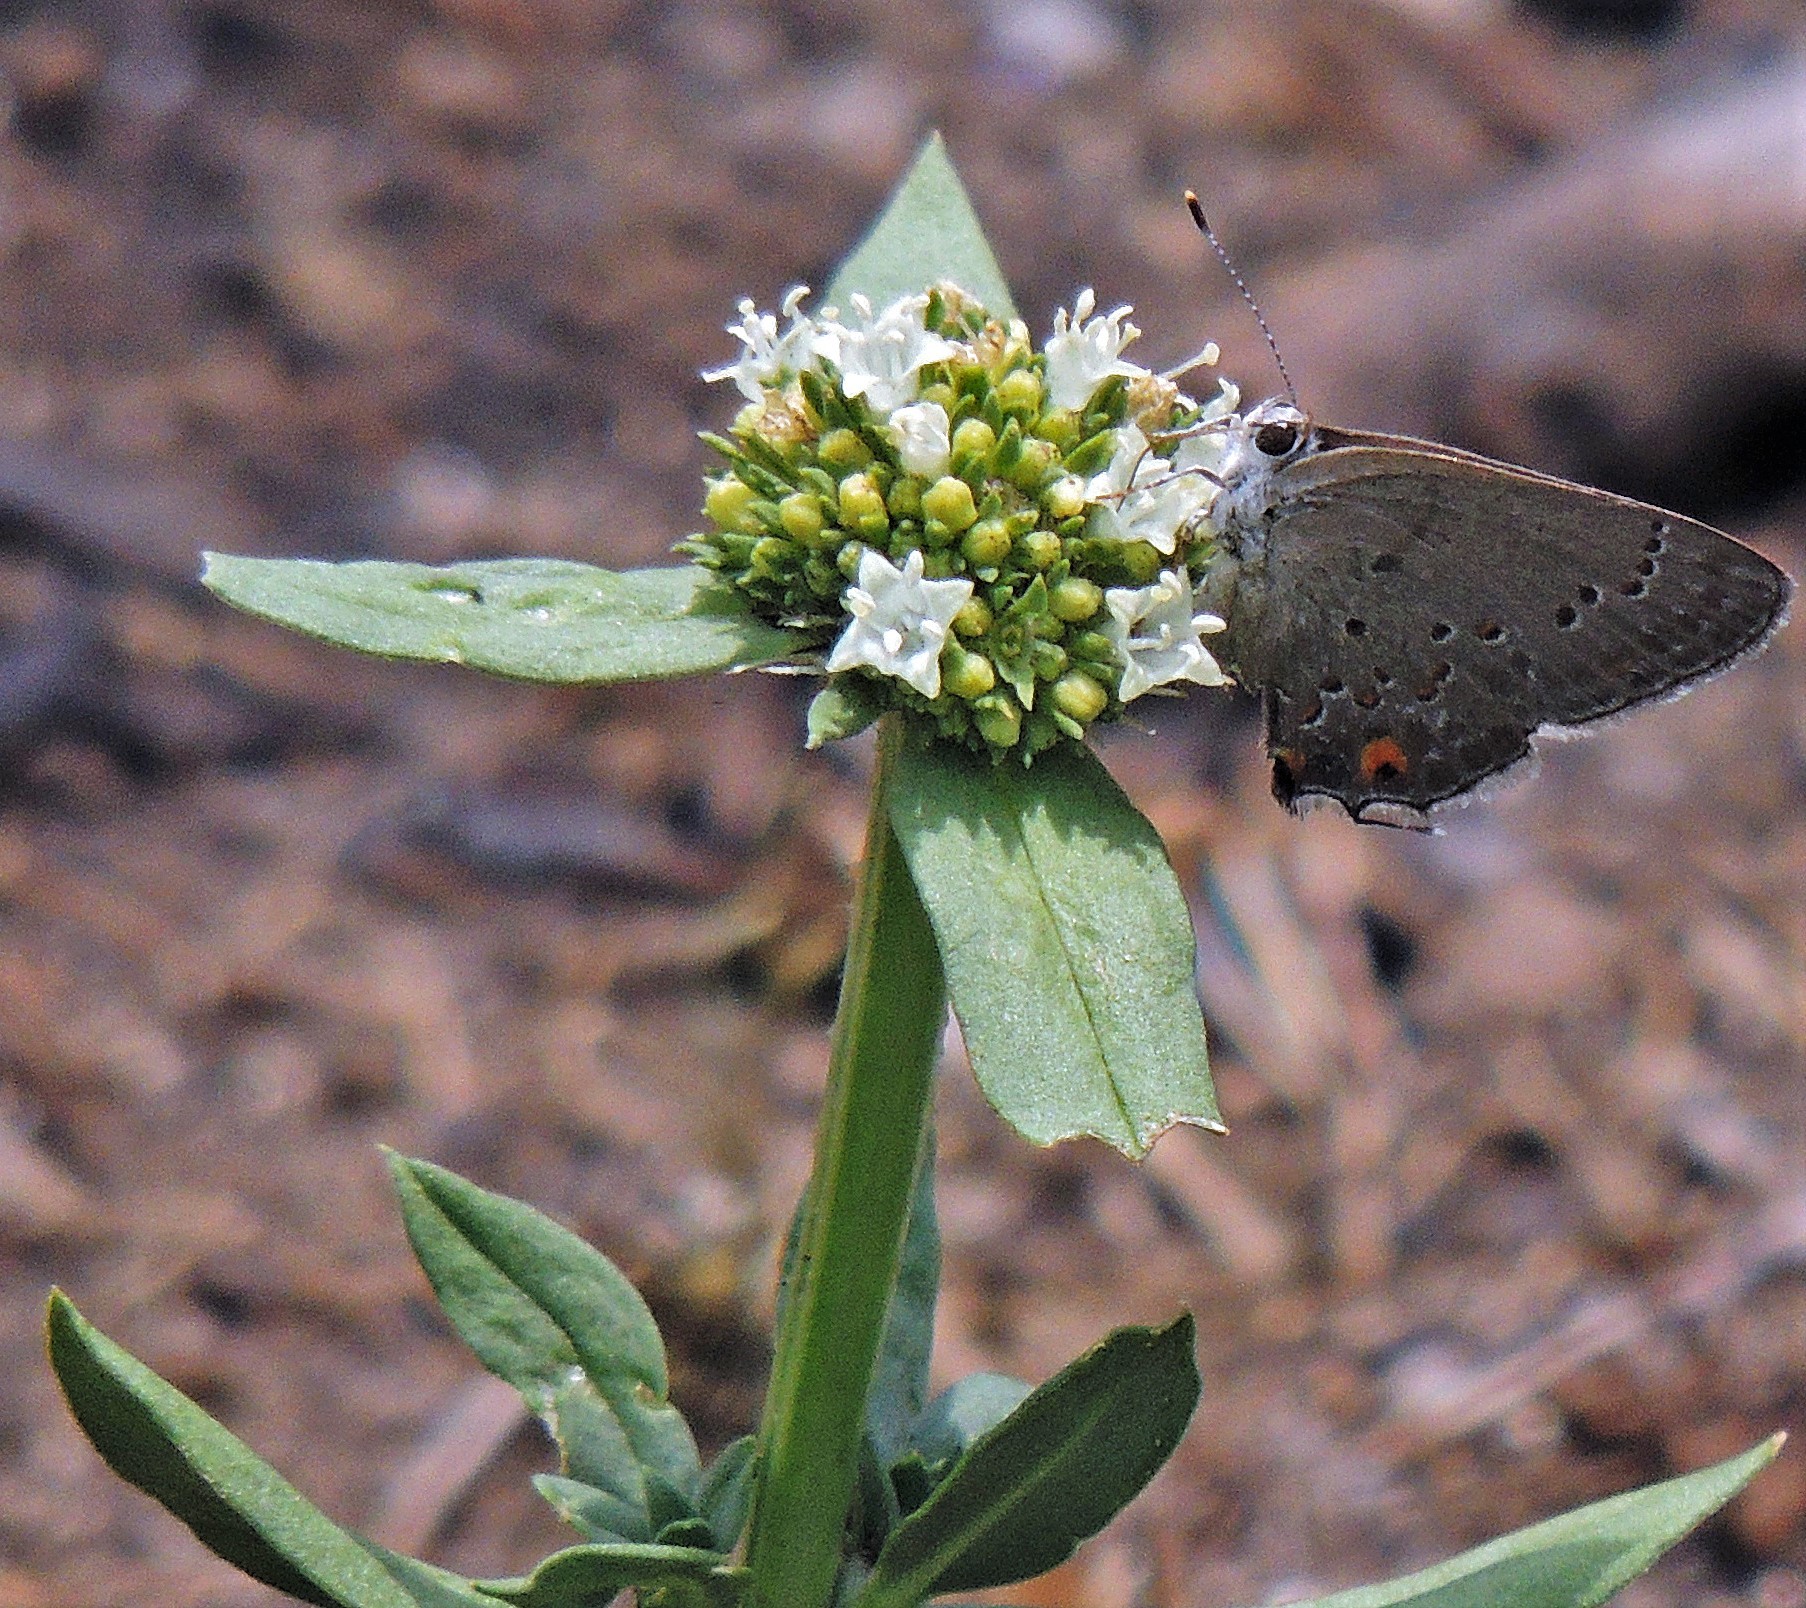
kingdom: Plantae
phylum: Tracheophyta
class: Magnoliopsida
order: Gentianales
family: Rubiaceae
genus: Spermacoce
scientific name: Spermacoce verticillata
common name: Shrubby false buttonweed
